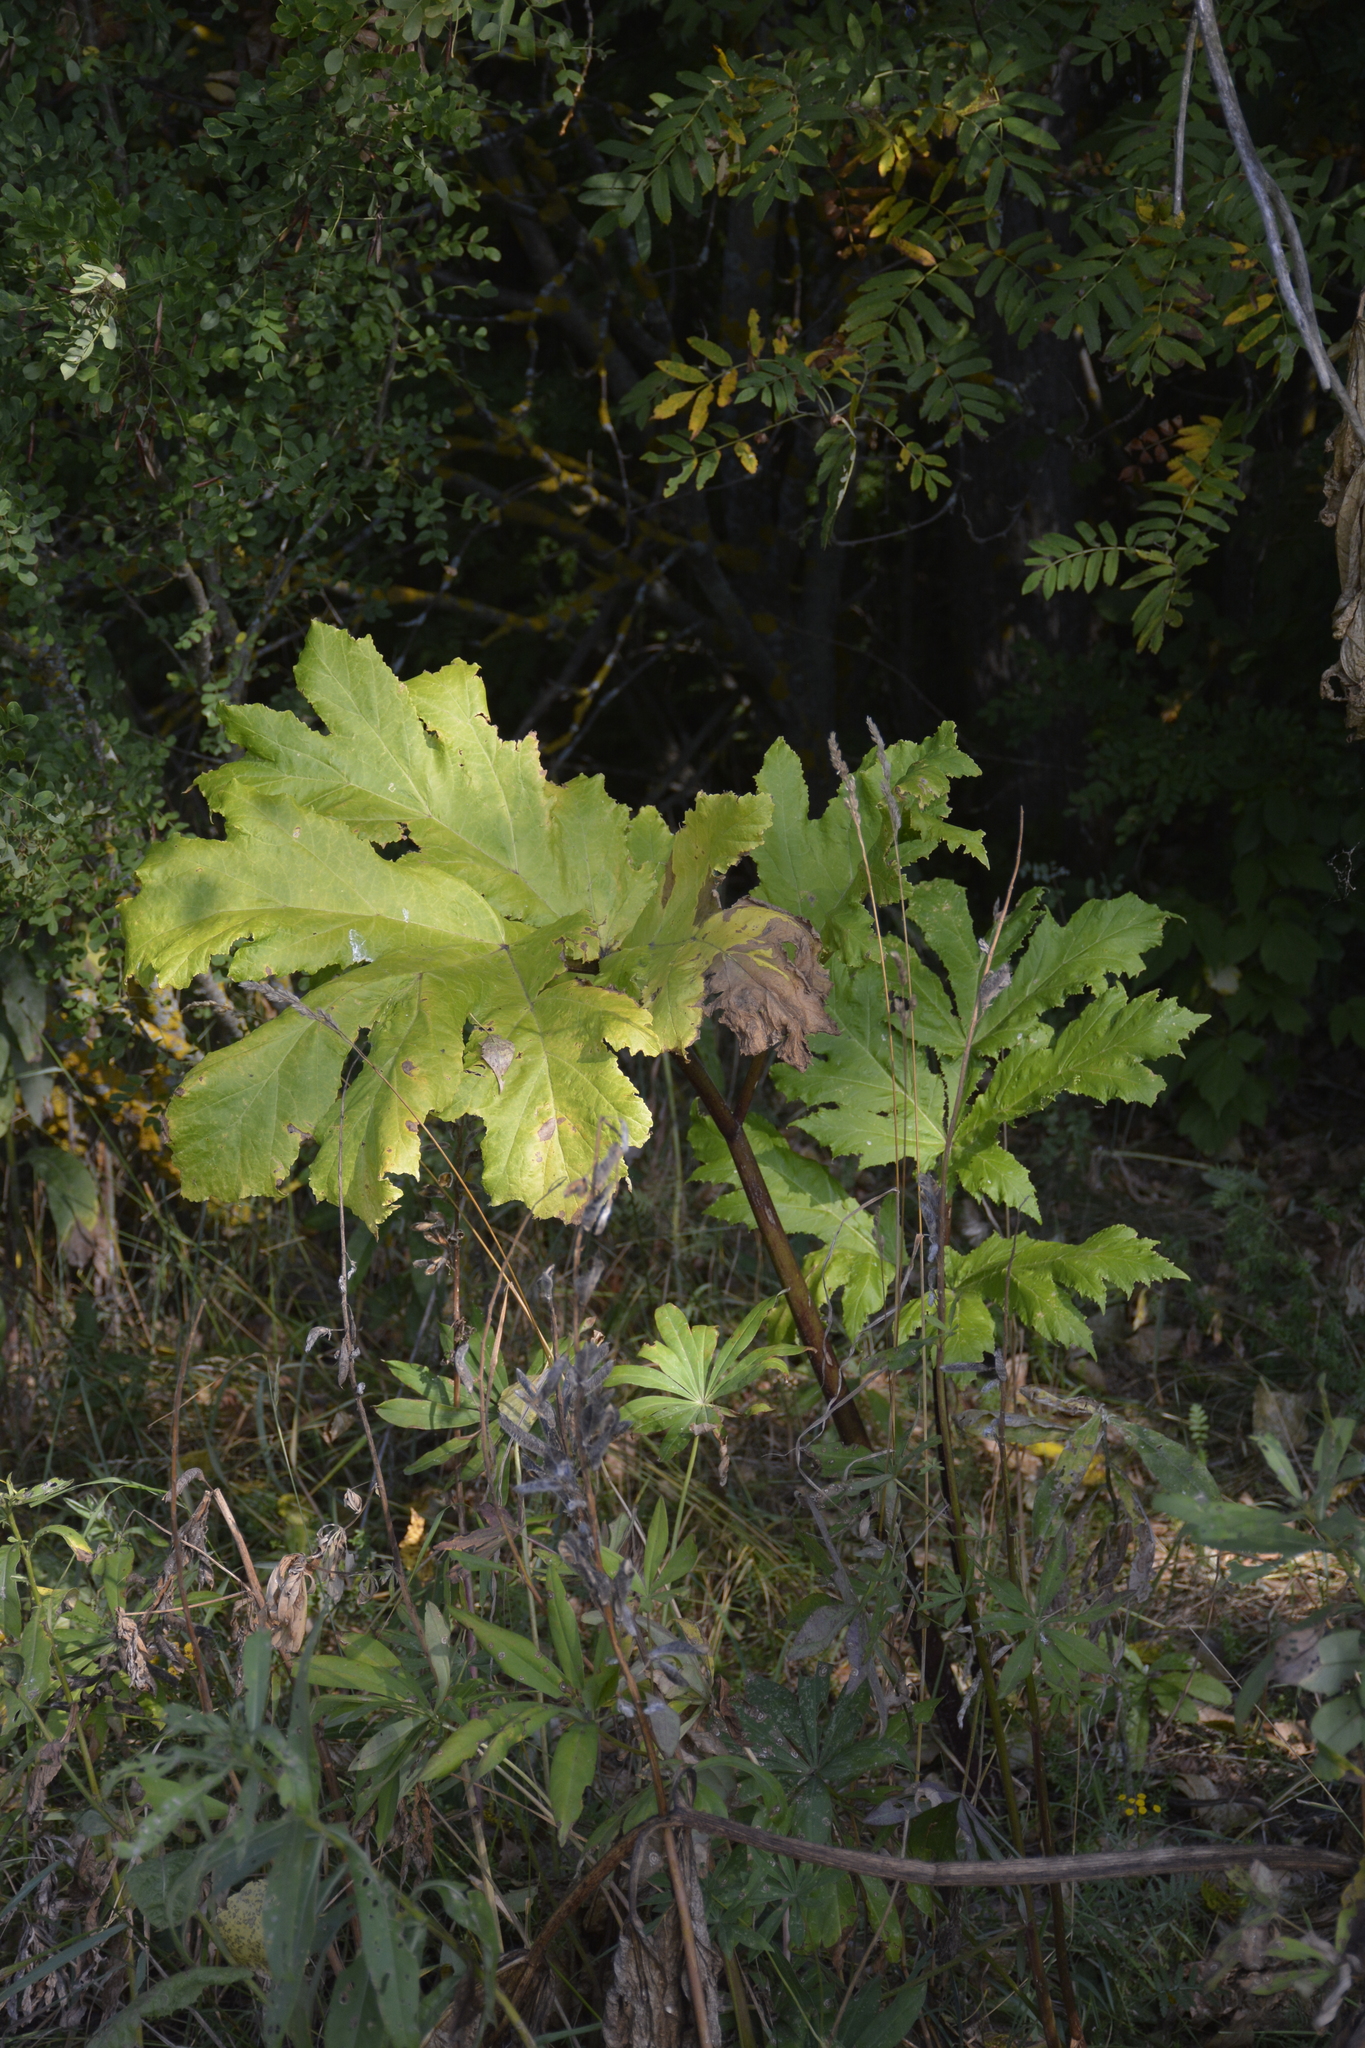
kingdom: Plantae
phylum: Tracheophyta
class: Magnoliopsida
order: Apiales
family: Apiaceae
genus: Heracleum
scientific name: Heracleum sosnowskyi
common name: Sosnowsky's hogweed
